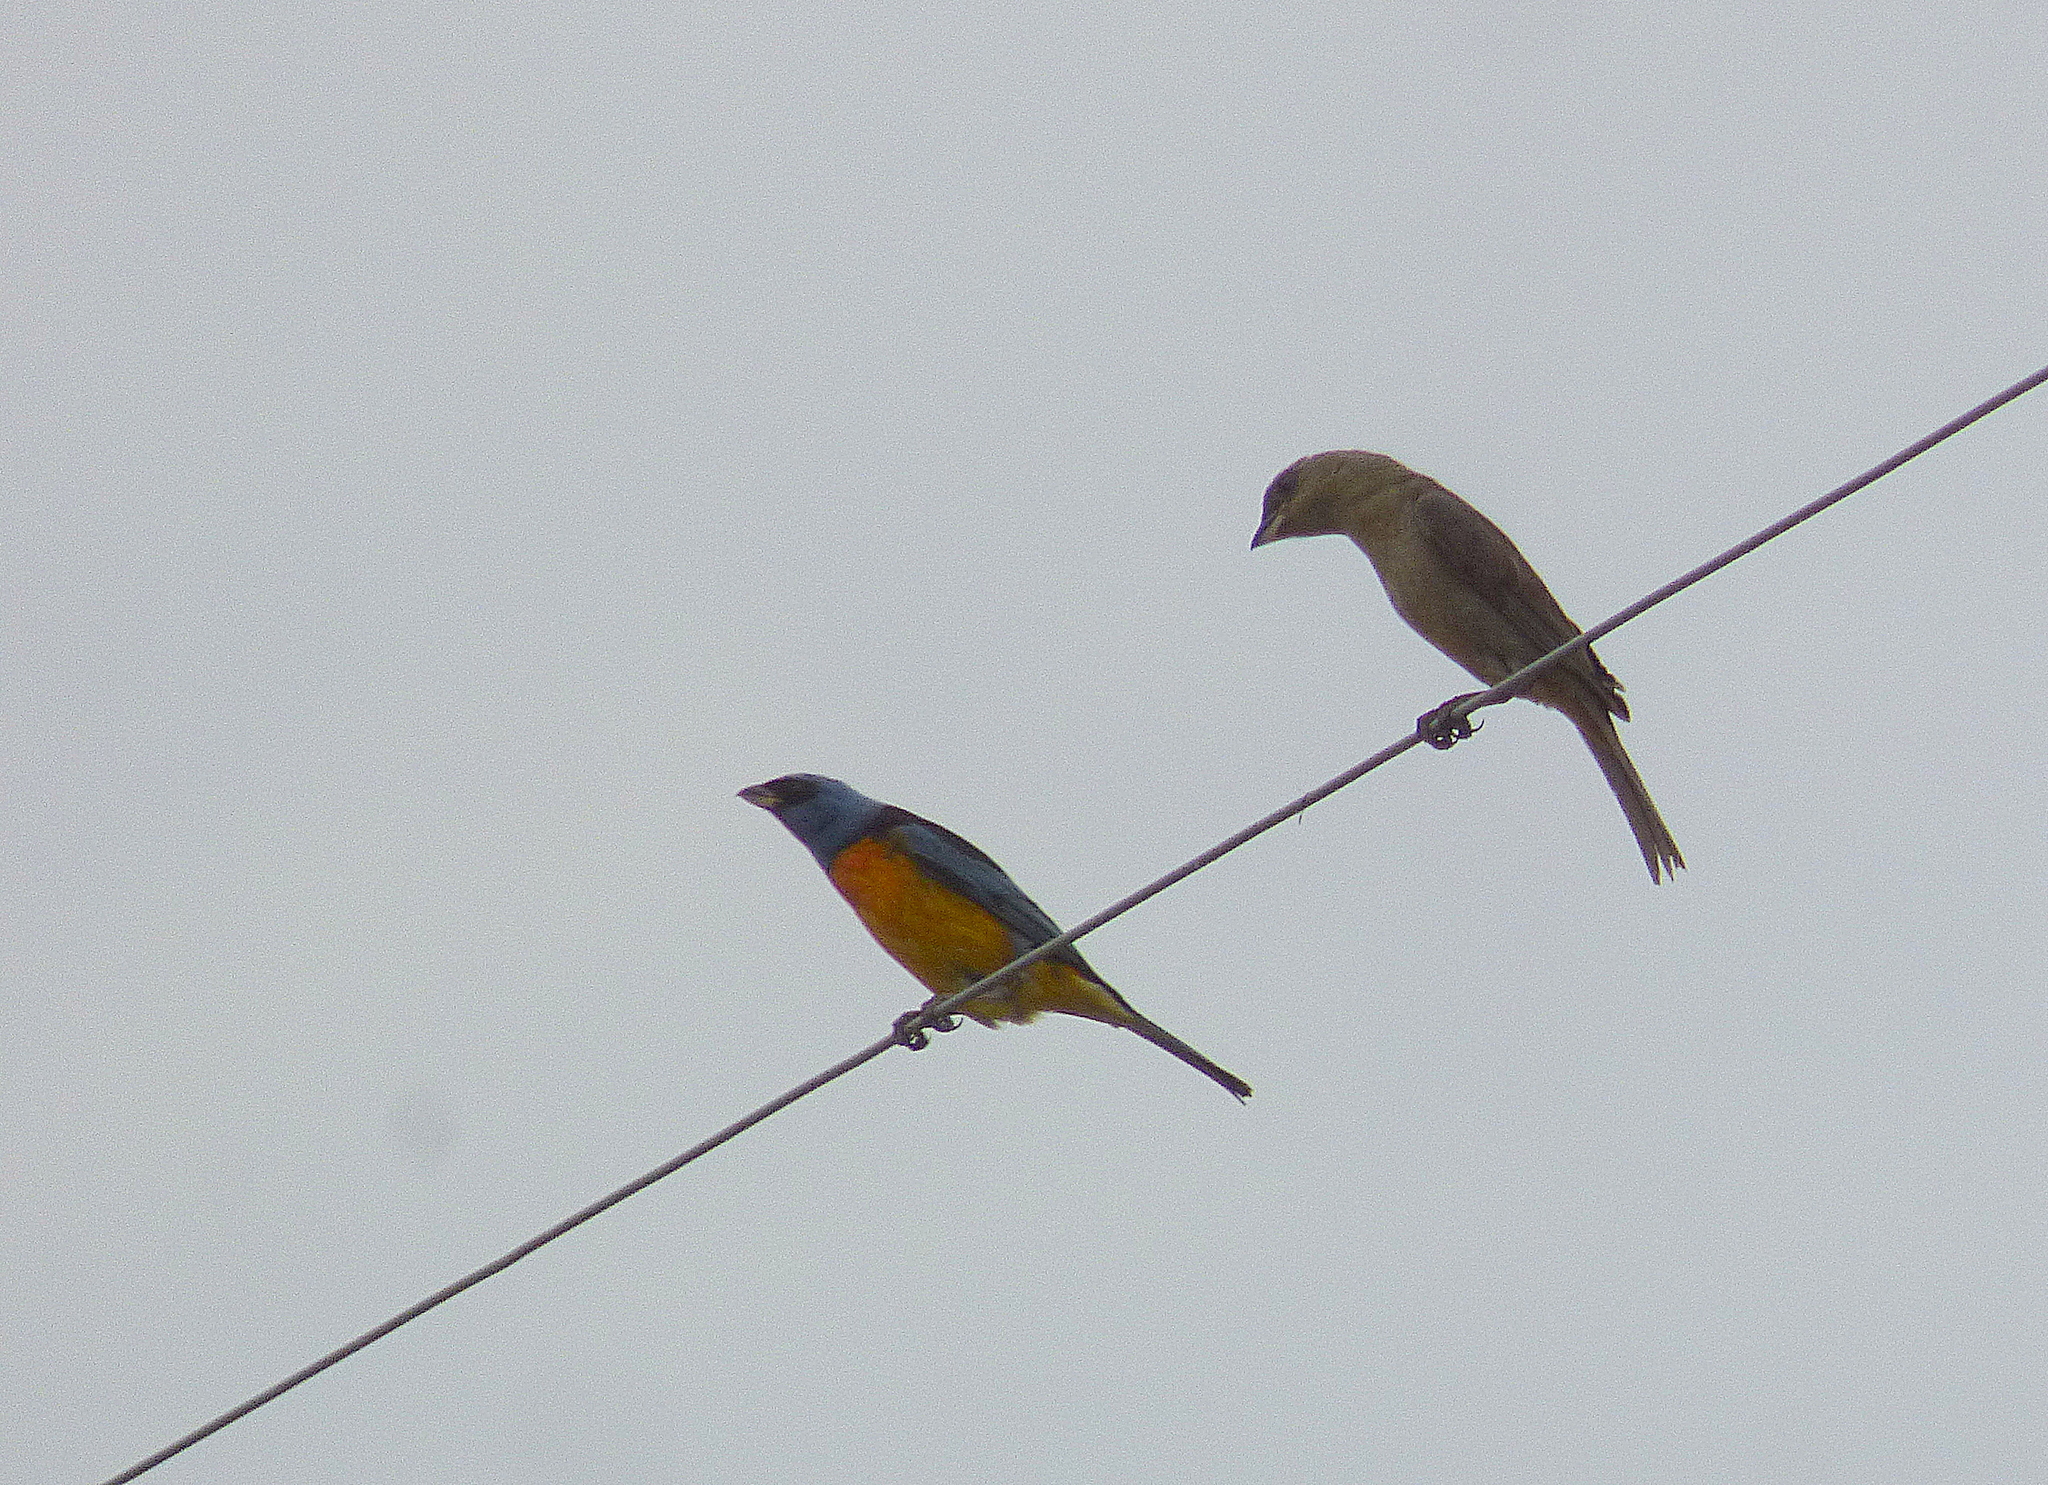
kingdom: Animalia
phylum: Chordata
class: Aves
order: Passeriformes
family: Thraupidae
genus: Rauenia
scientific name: Rauenia bonariensis
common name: Blue-and-yellow tanager
